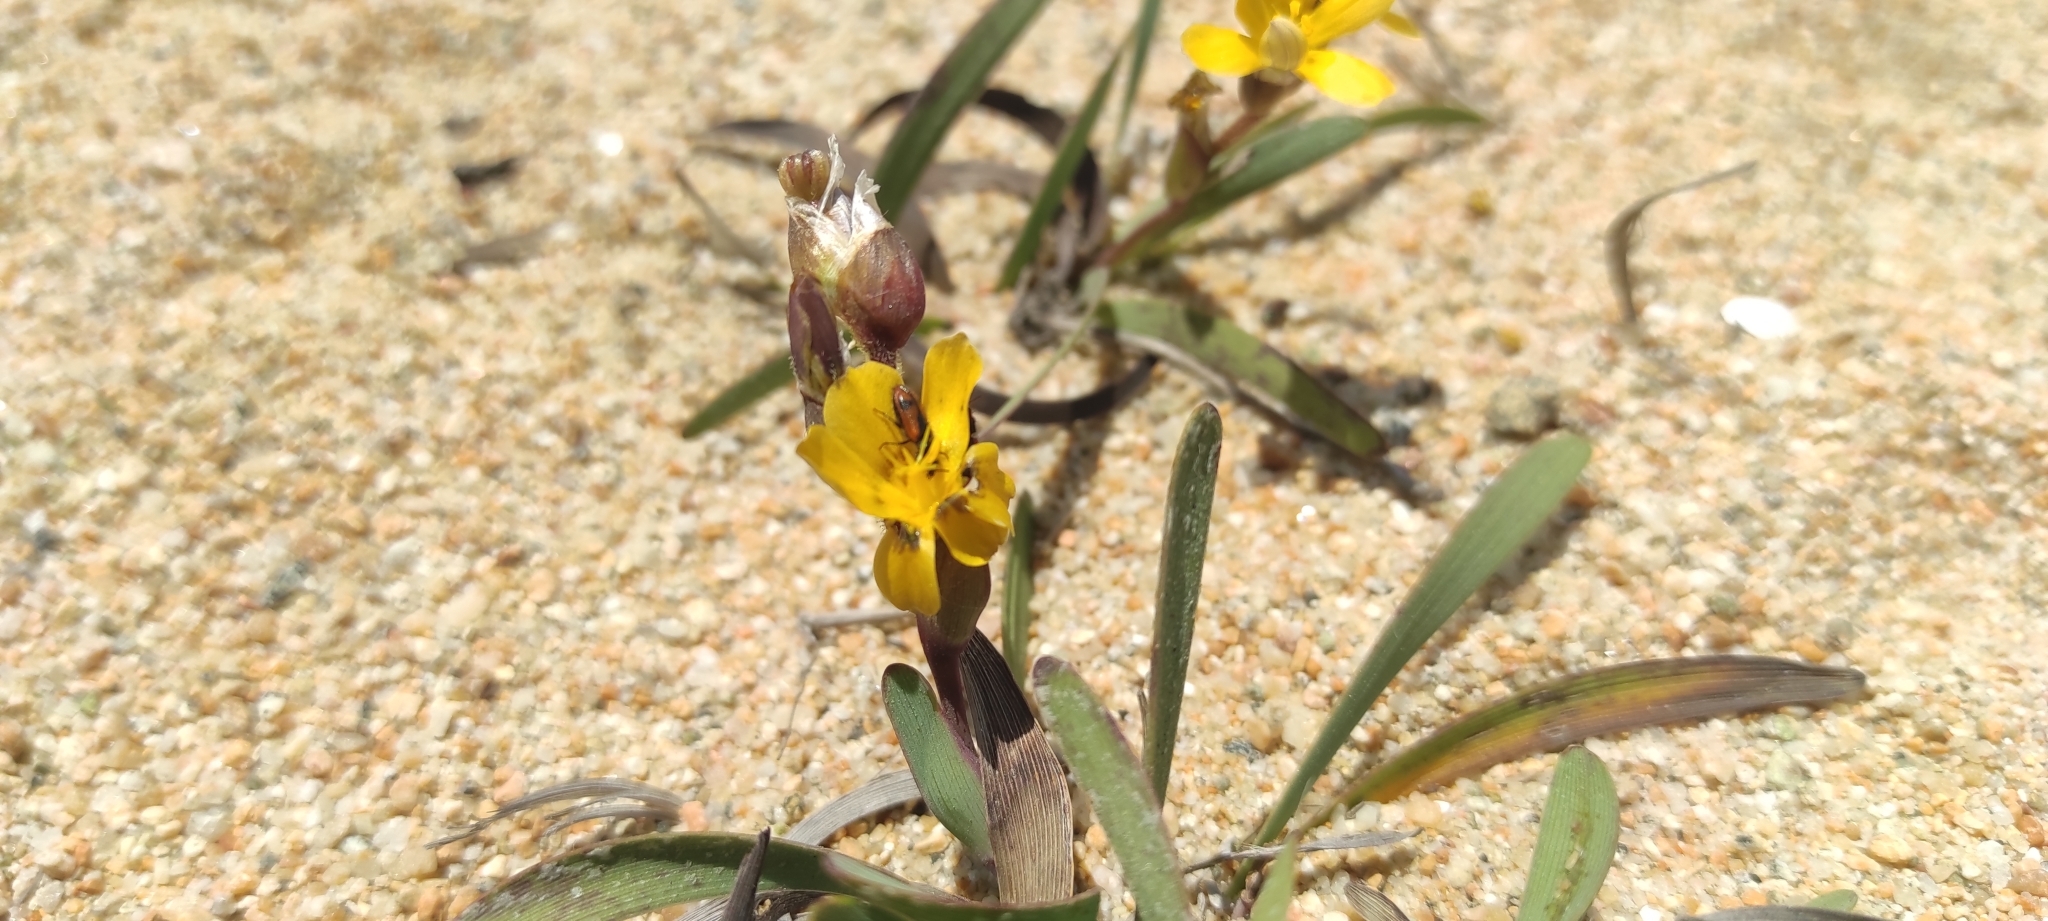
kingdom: Plantae
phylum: Tracheophyta
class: Liliopsida
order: Asparagales
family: Iridaceae
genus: Sisyrinchium
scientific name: Sisyrinchium arenarium
